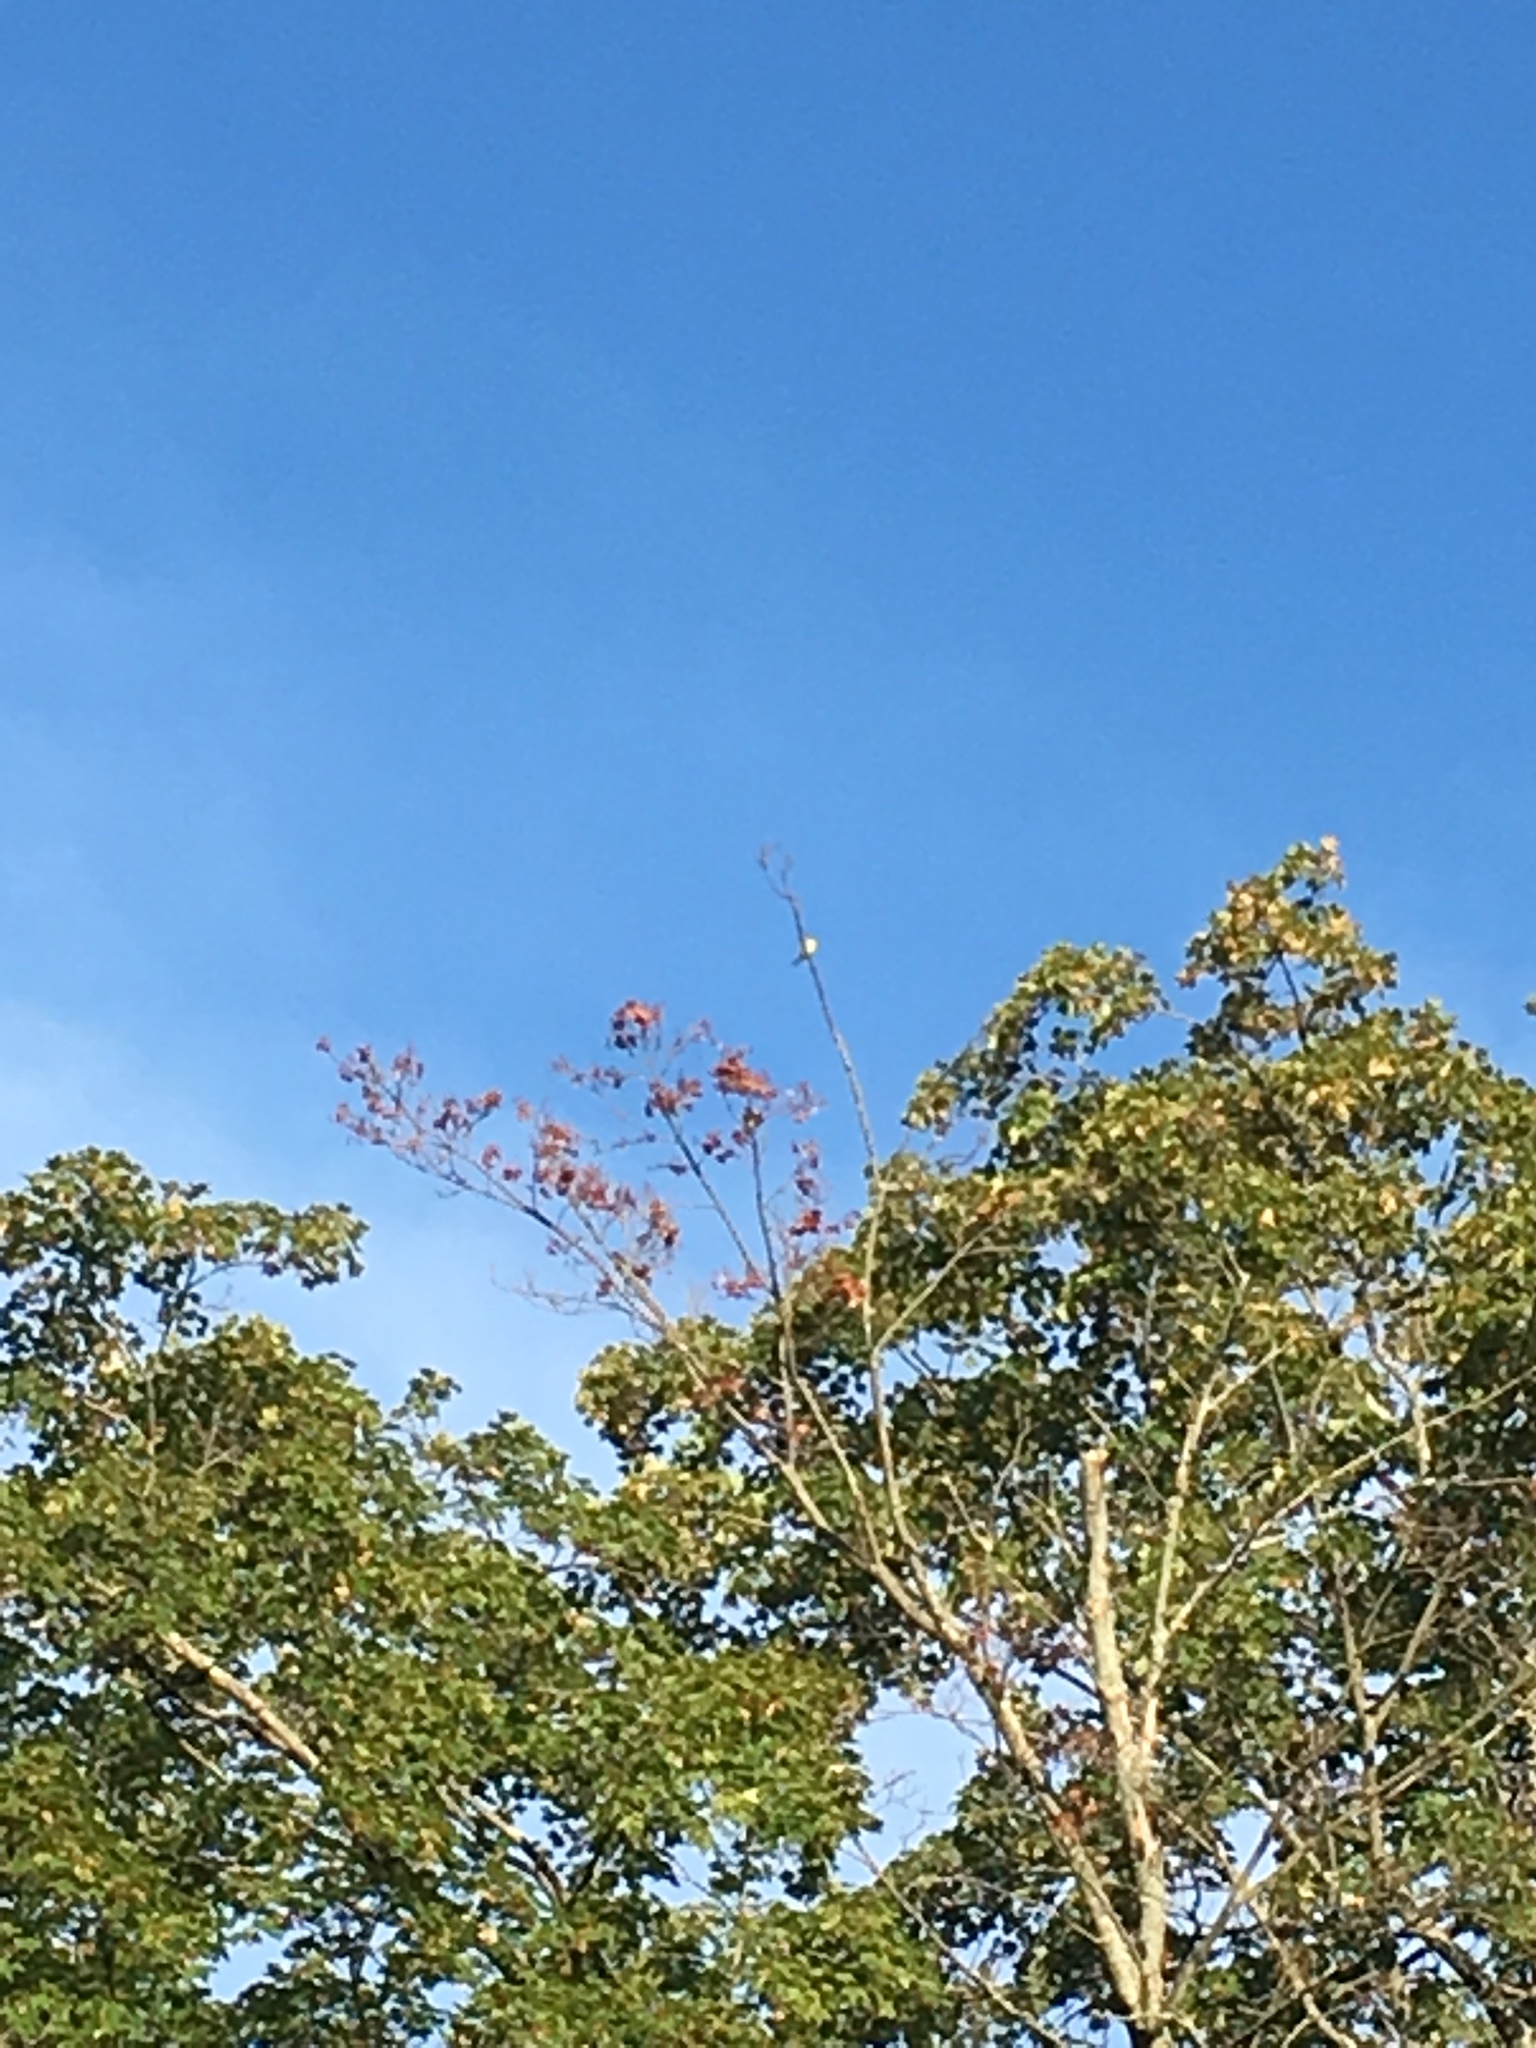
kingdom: Animalia
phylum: Chordata
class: Aves
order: Passeriformes
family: Fringillidae
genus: Spinus
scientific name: Spinus tristis
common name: American goldfinch
